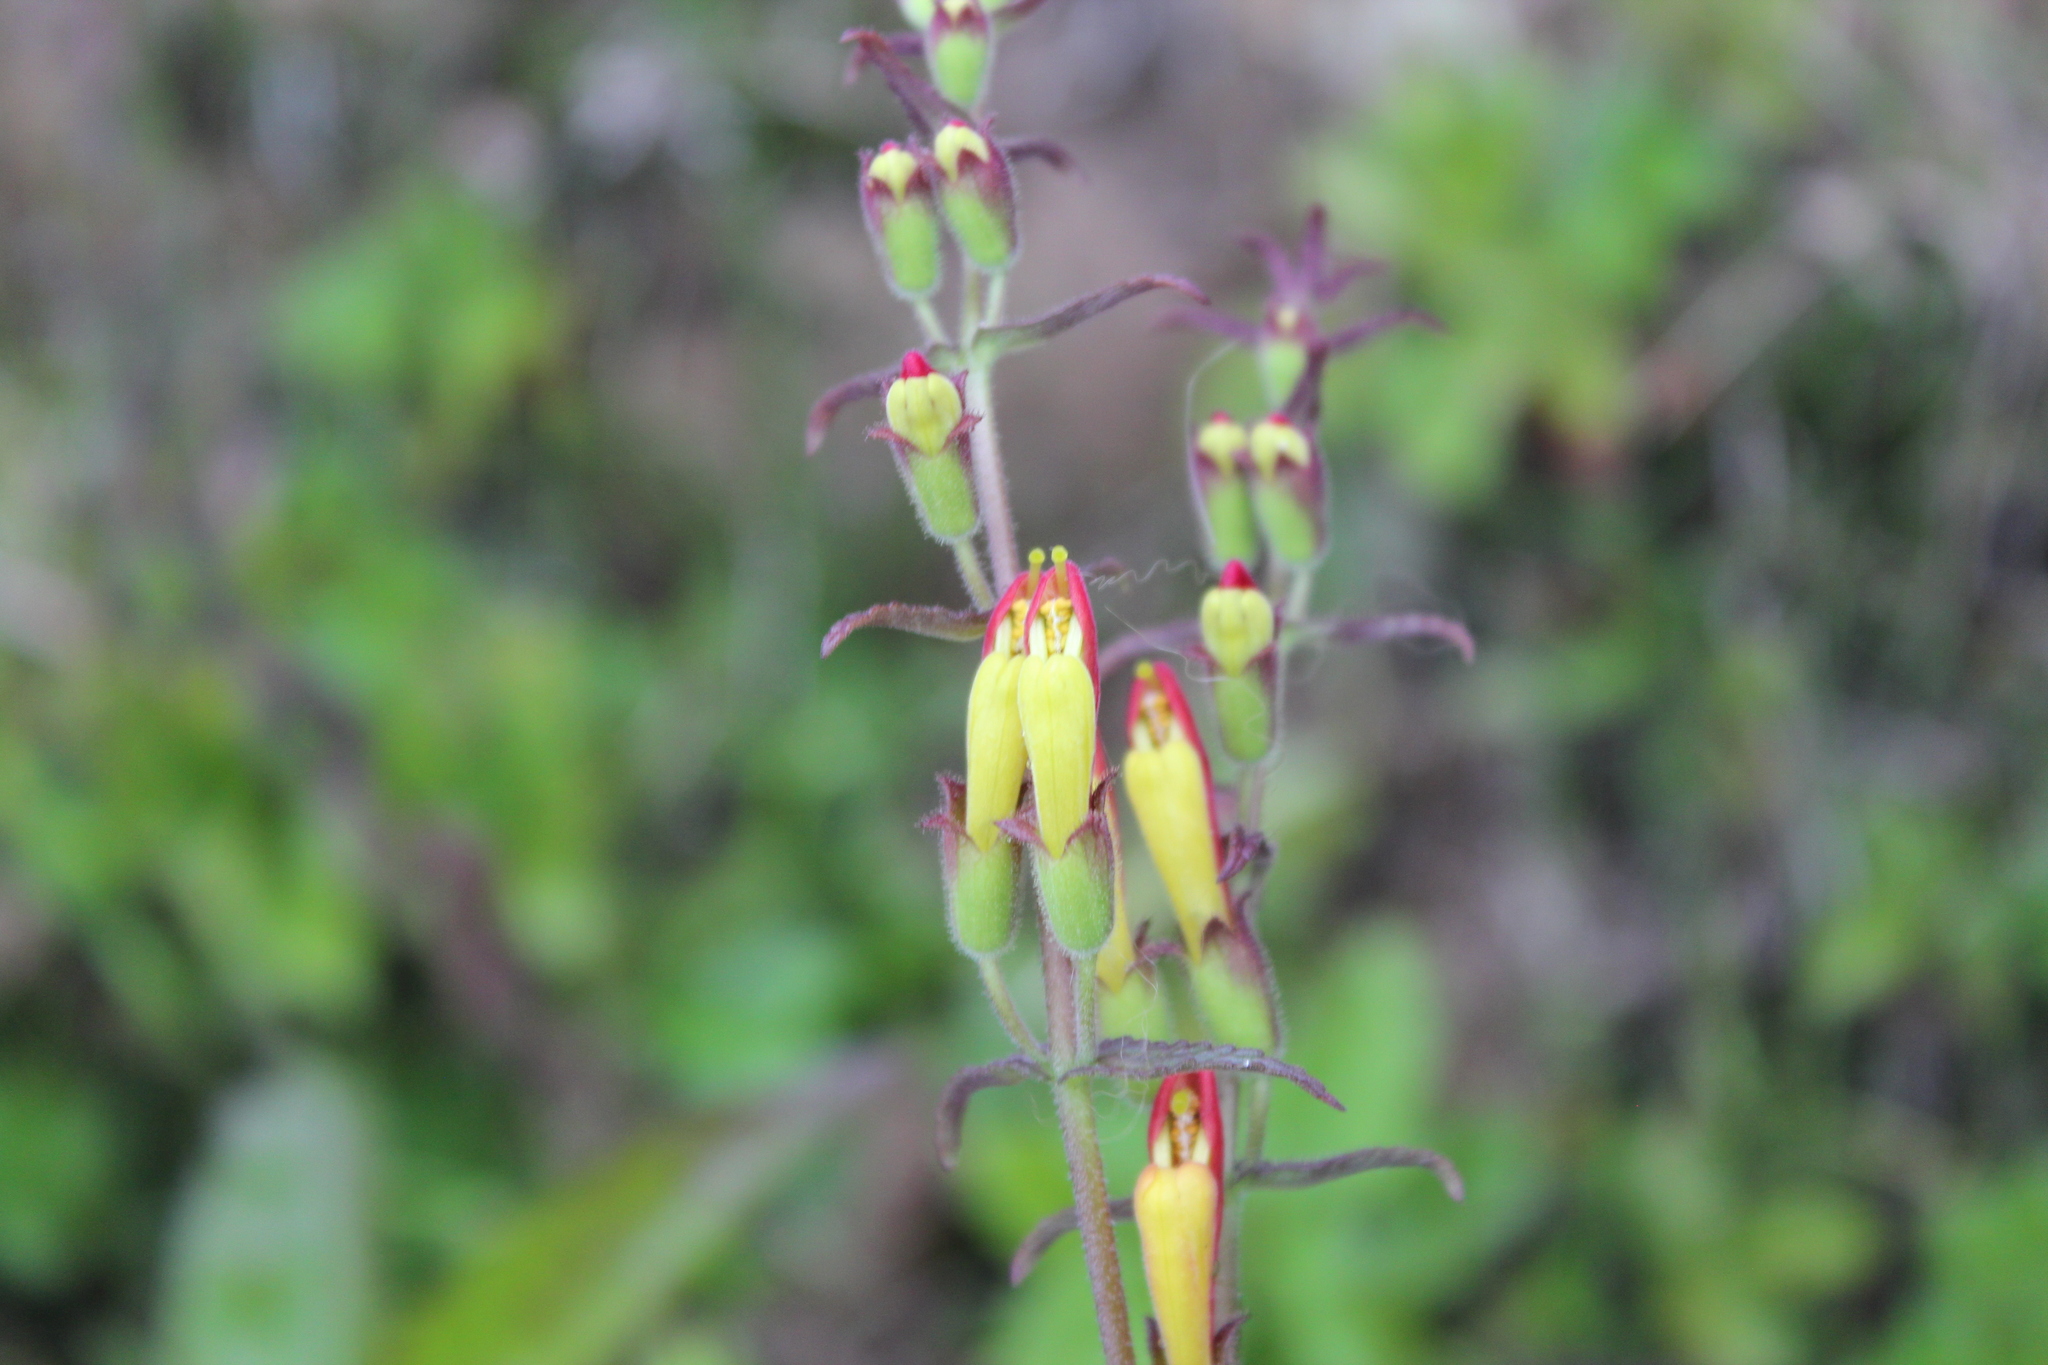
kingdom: Plantae
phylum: Tracheophyta
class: Magnoliopsida
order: Lamiales
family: Orobanchaceae
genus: Neobartsia
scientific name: Neobartsia camporum
